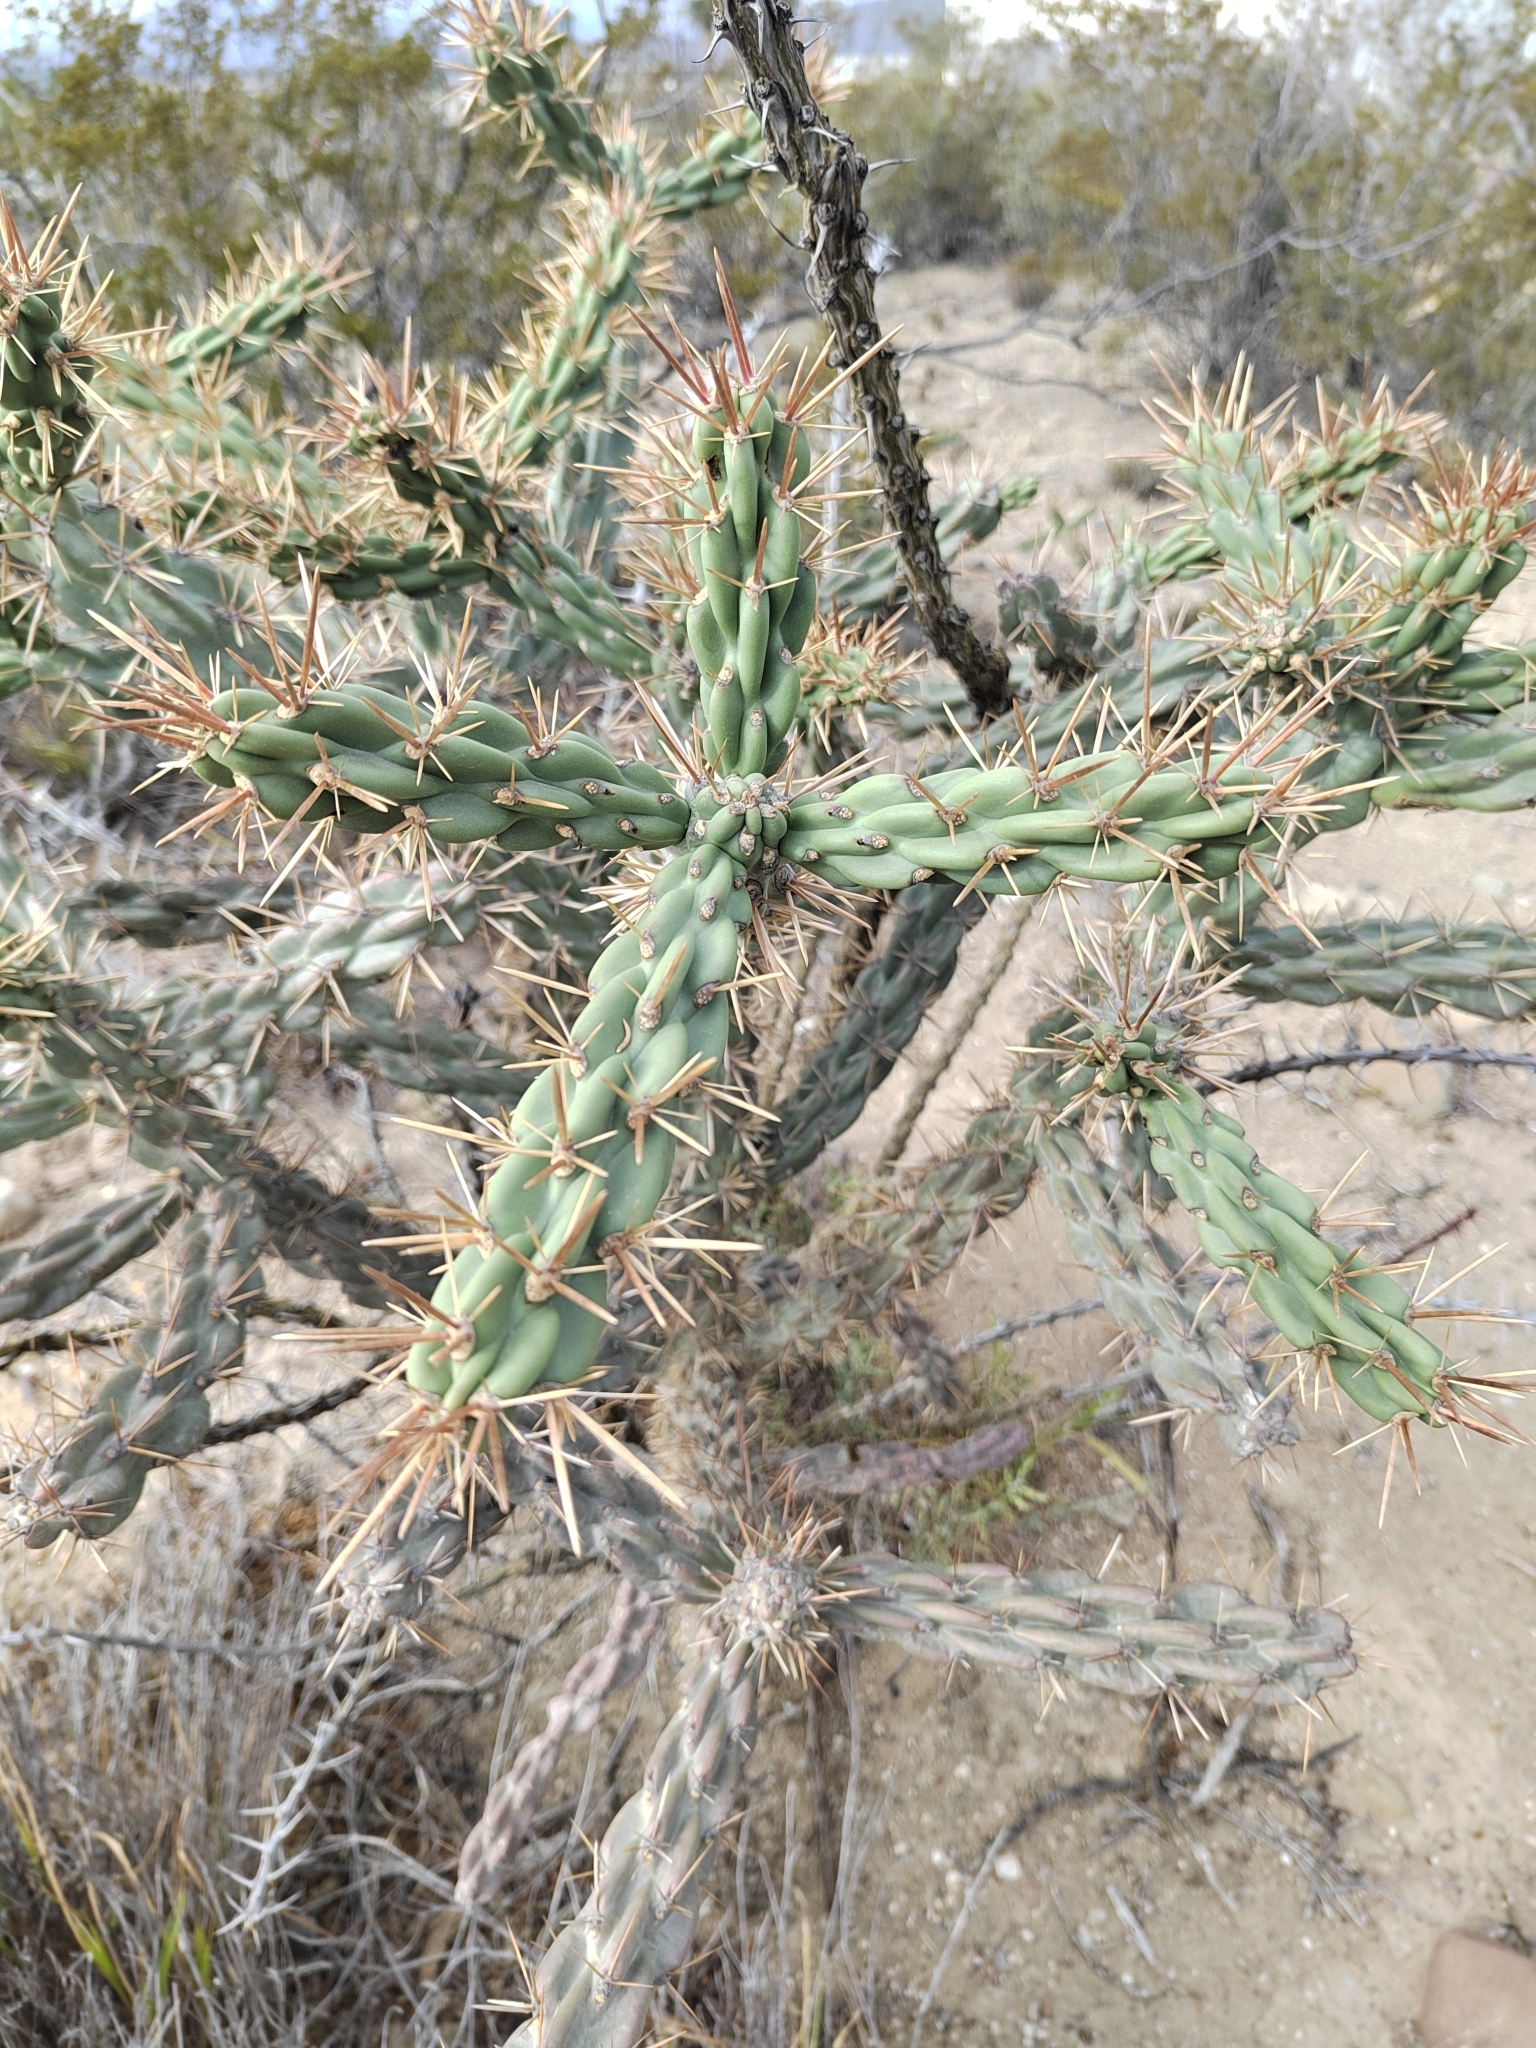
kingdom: Plantae
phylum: Tracheophyta
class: Magnoliopsida
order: Caryophyllales
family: Cactaceae
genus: Cylindropuntia
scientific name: Cylindropuntia imbricata
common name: Candelabrum cactus
